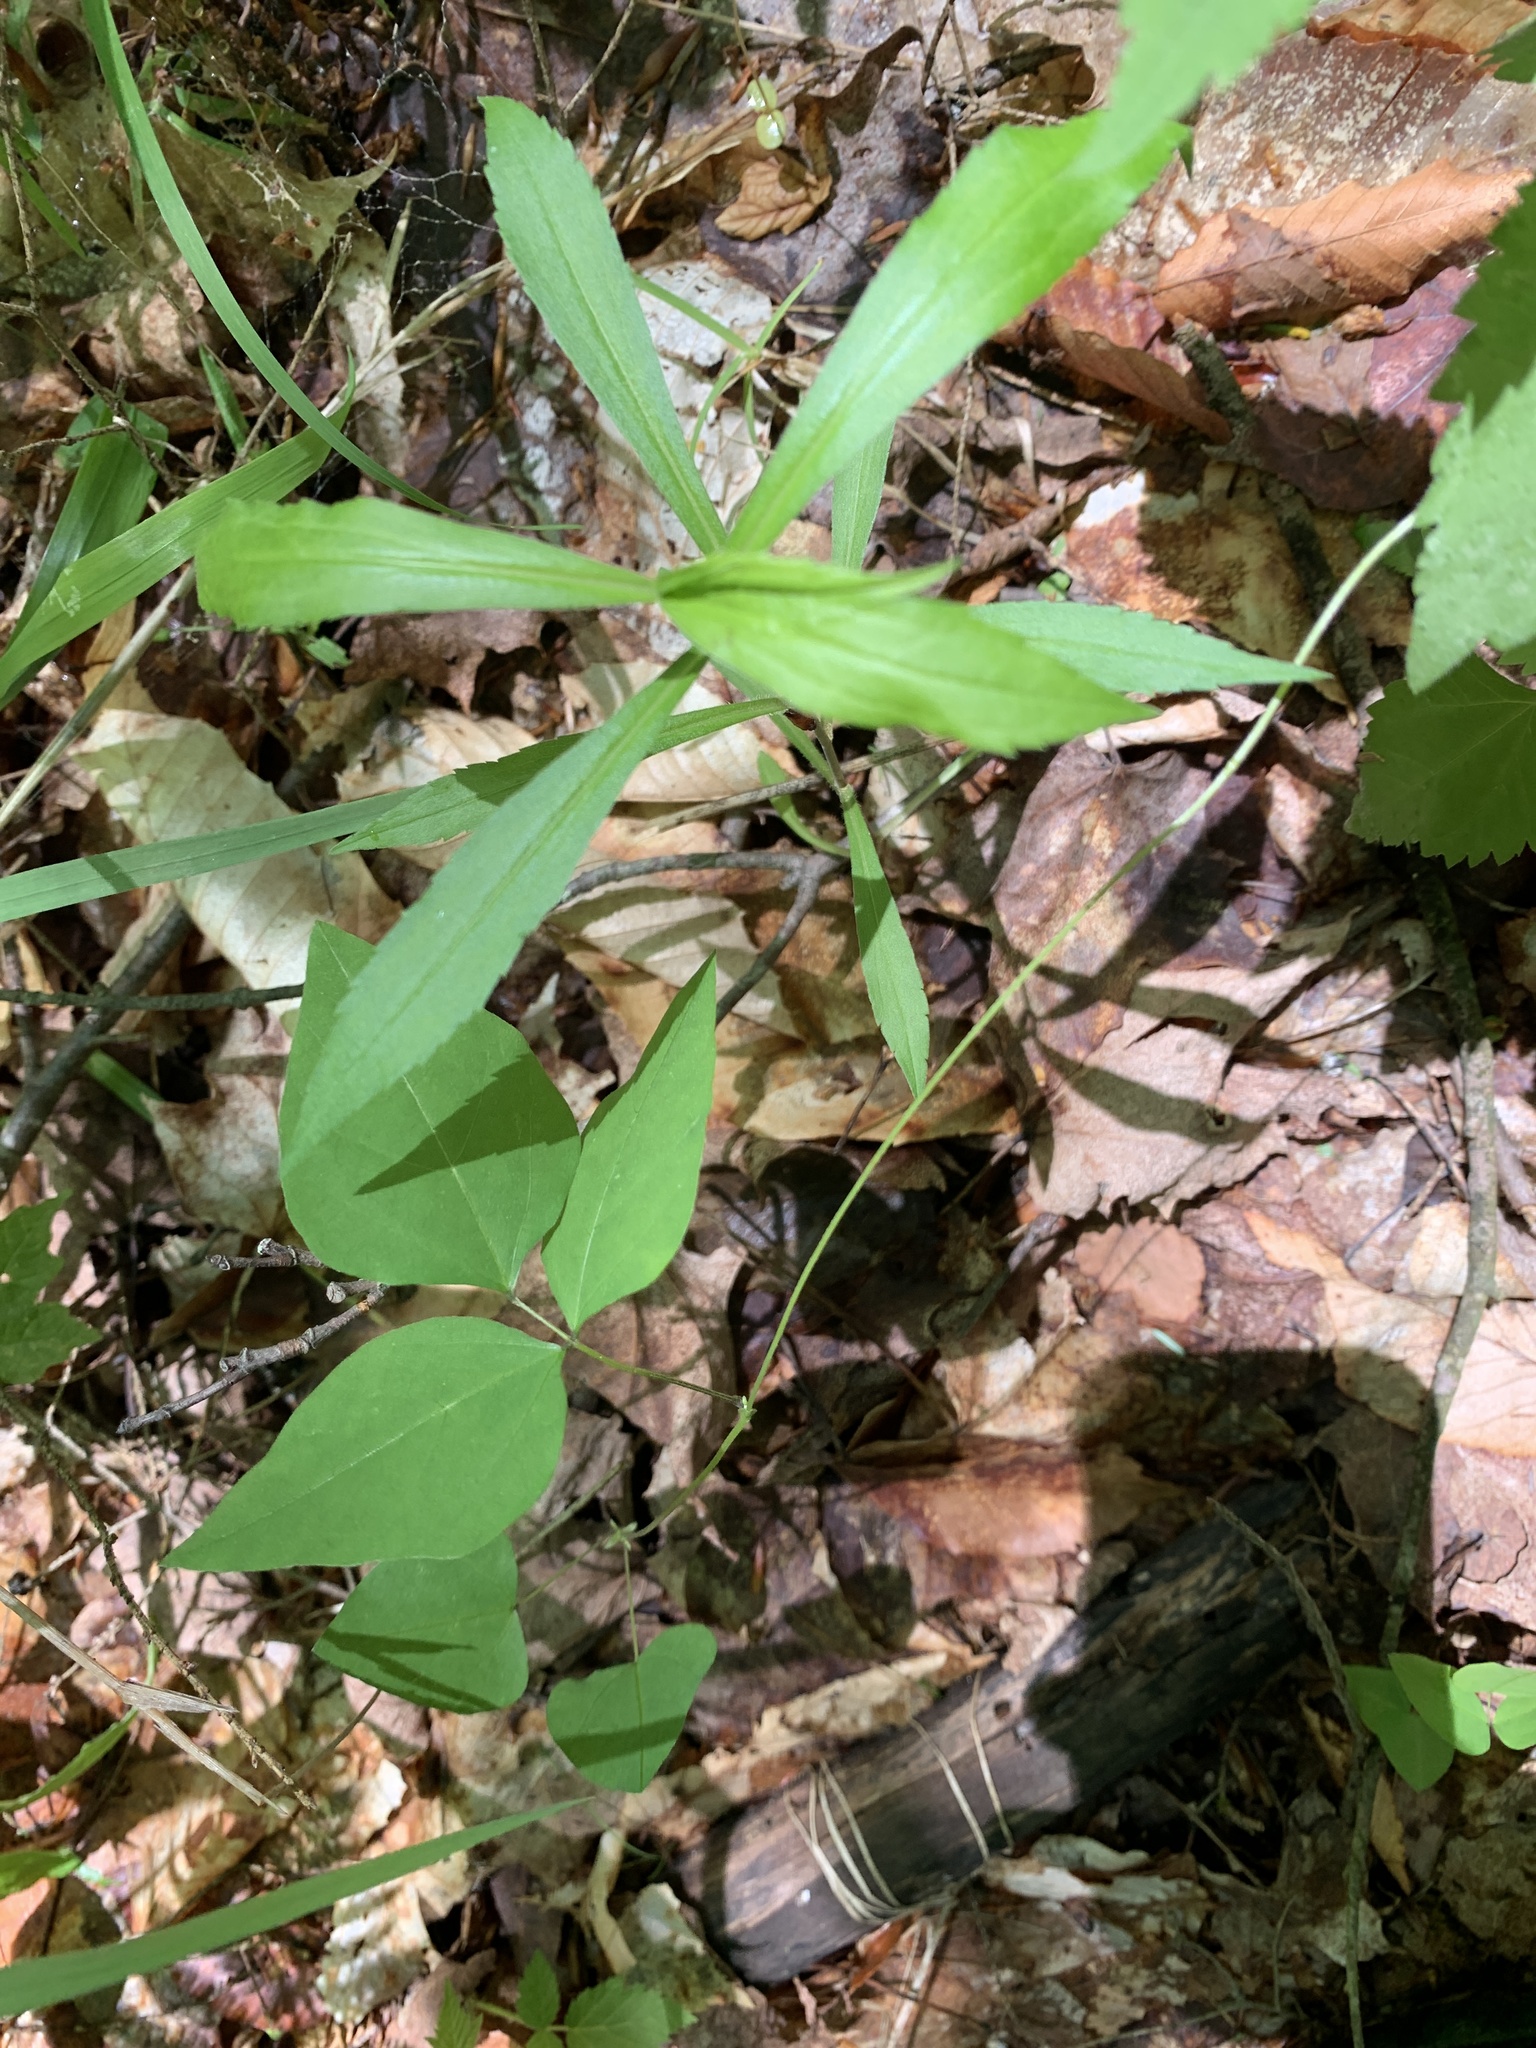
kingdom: Plantae
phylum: Tracheophyta
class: Magnoliopsida
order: Fabales
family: Fabaceae
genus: Amphicarpaea
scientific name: Amphicarpaea bracteata
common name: American hog peanut
